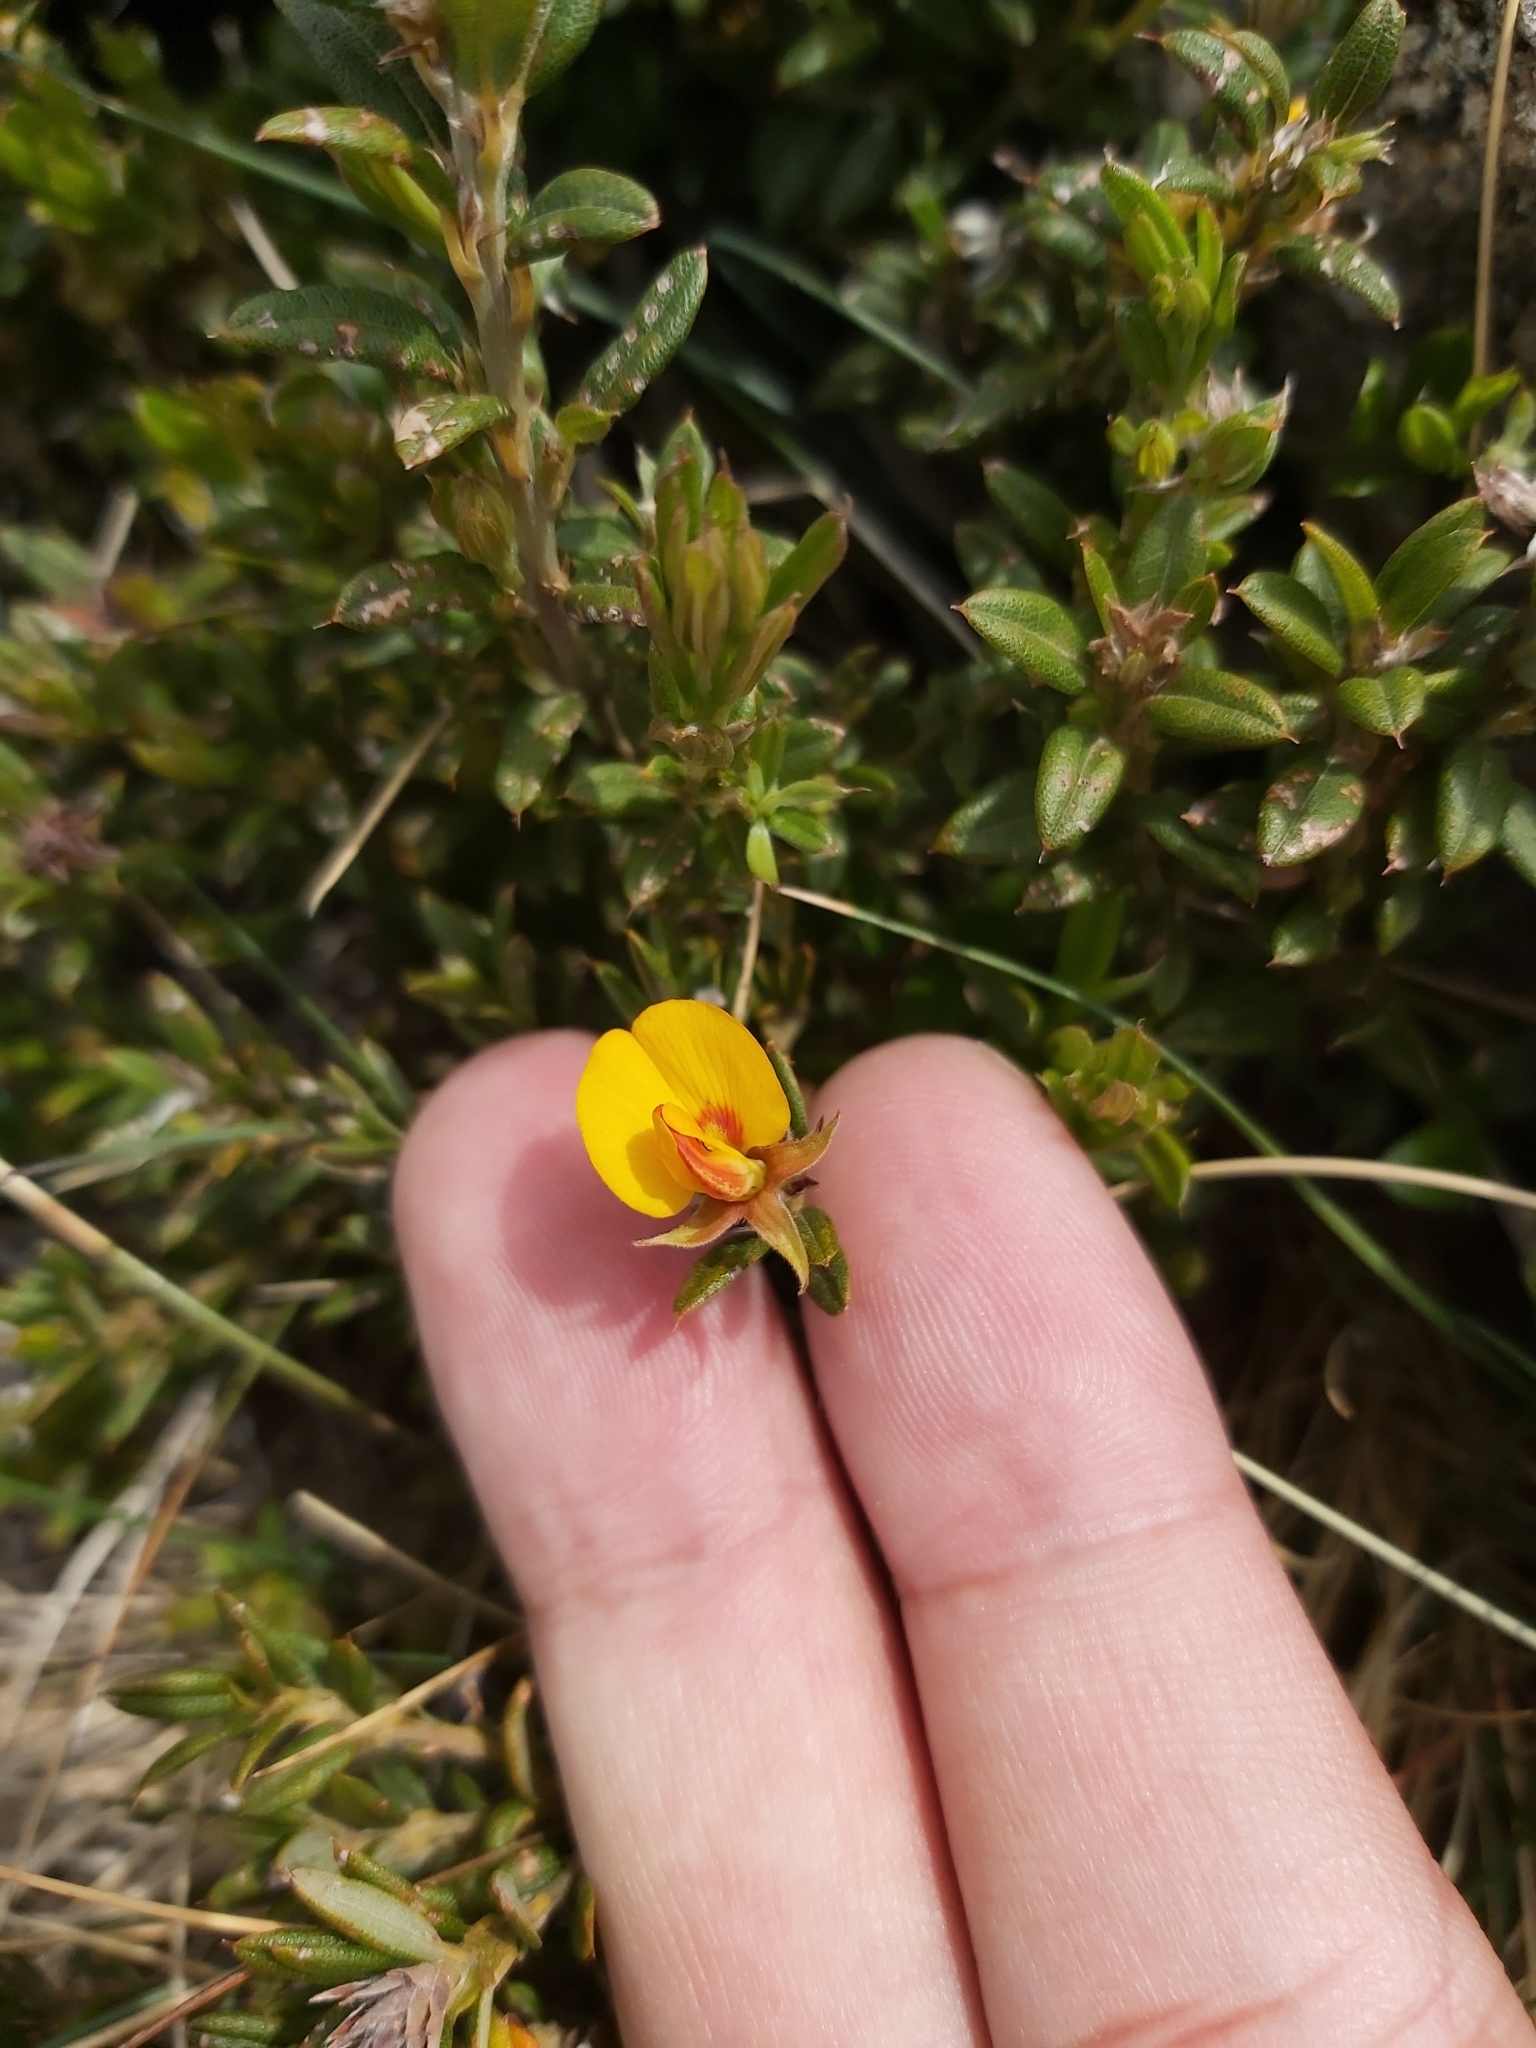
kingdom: Plantae
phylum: Tracheophyta
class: Magnoliopsida
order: Fabales
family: Fabaceae
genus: Oxylobium
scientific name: Oxylobium ellipticum
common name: Golden shaggy-pea
